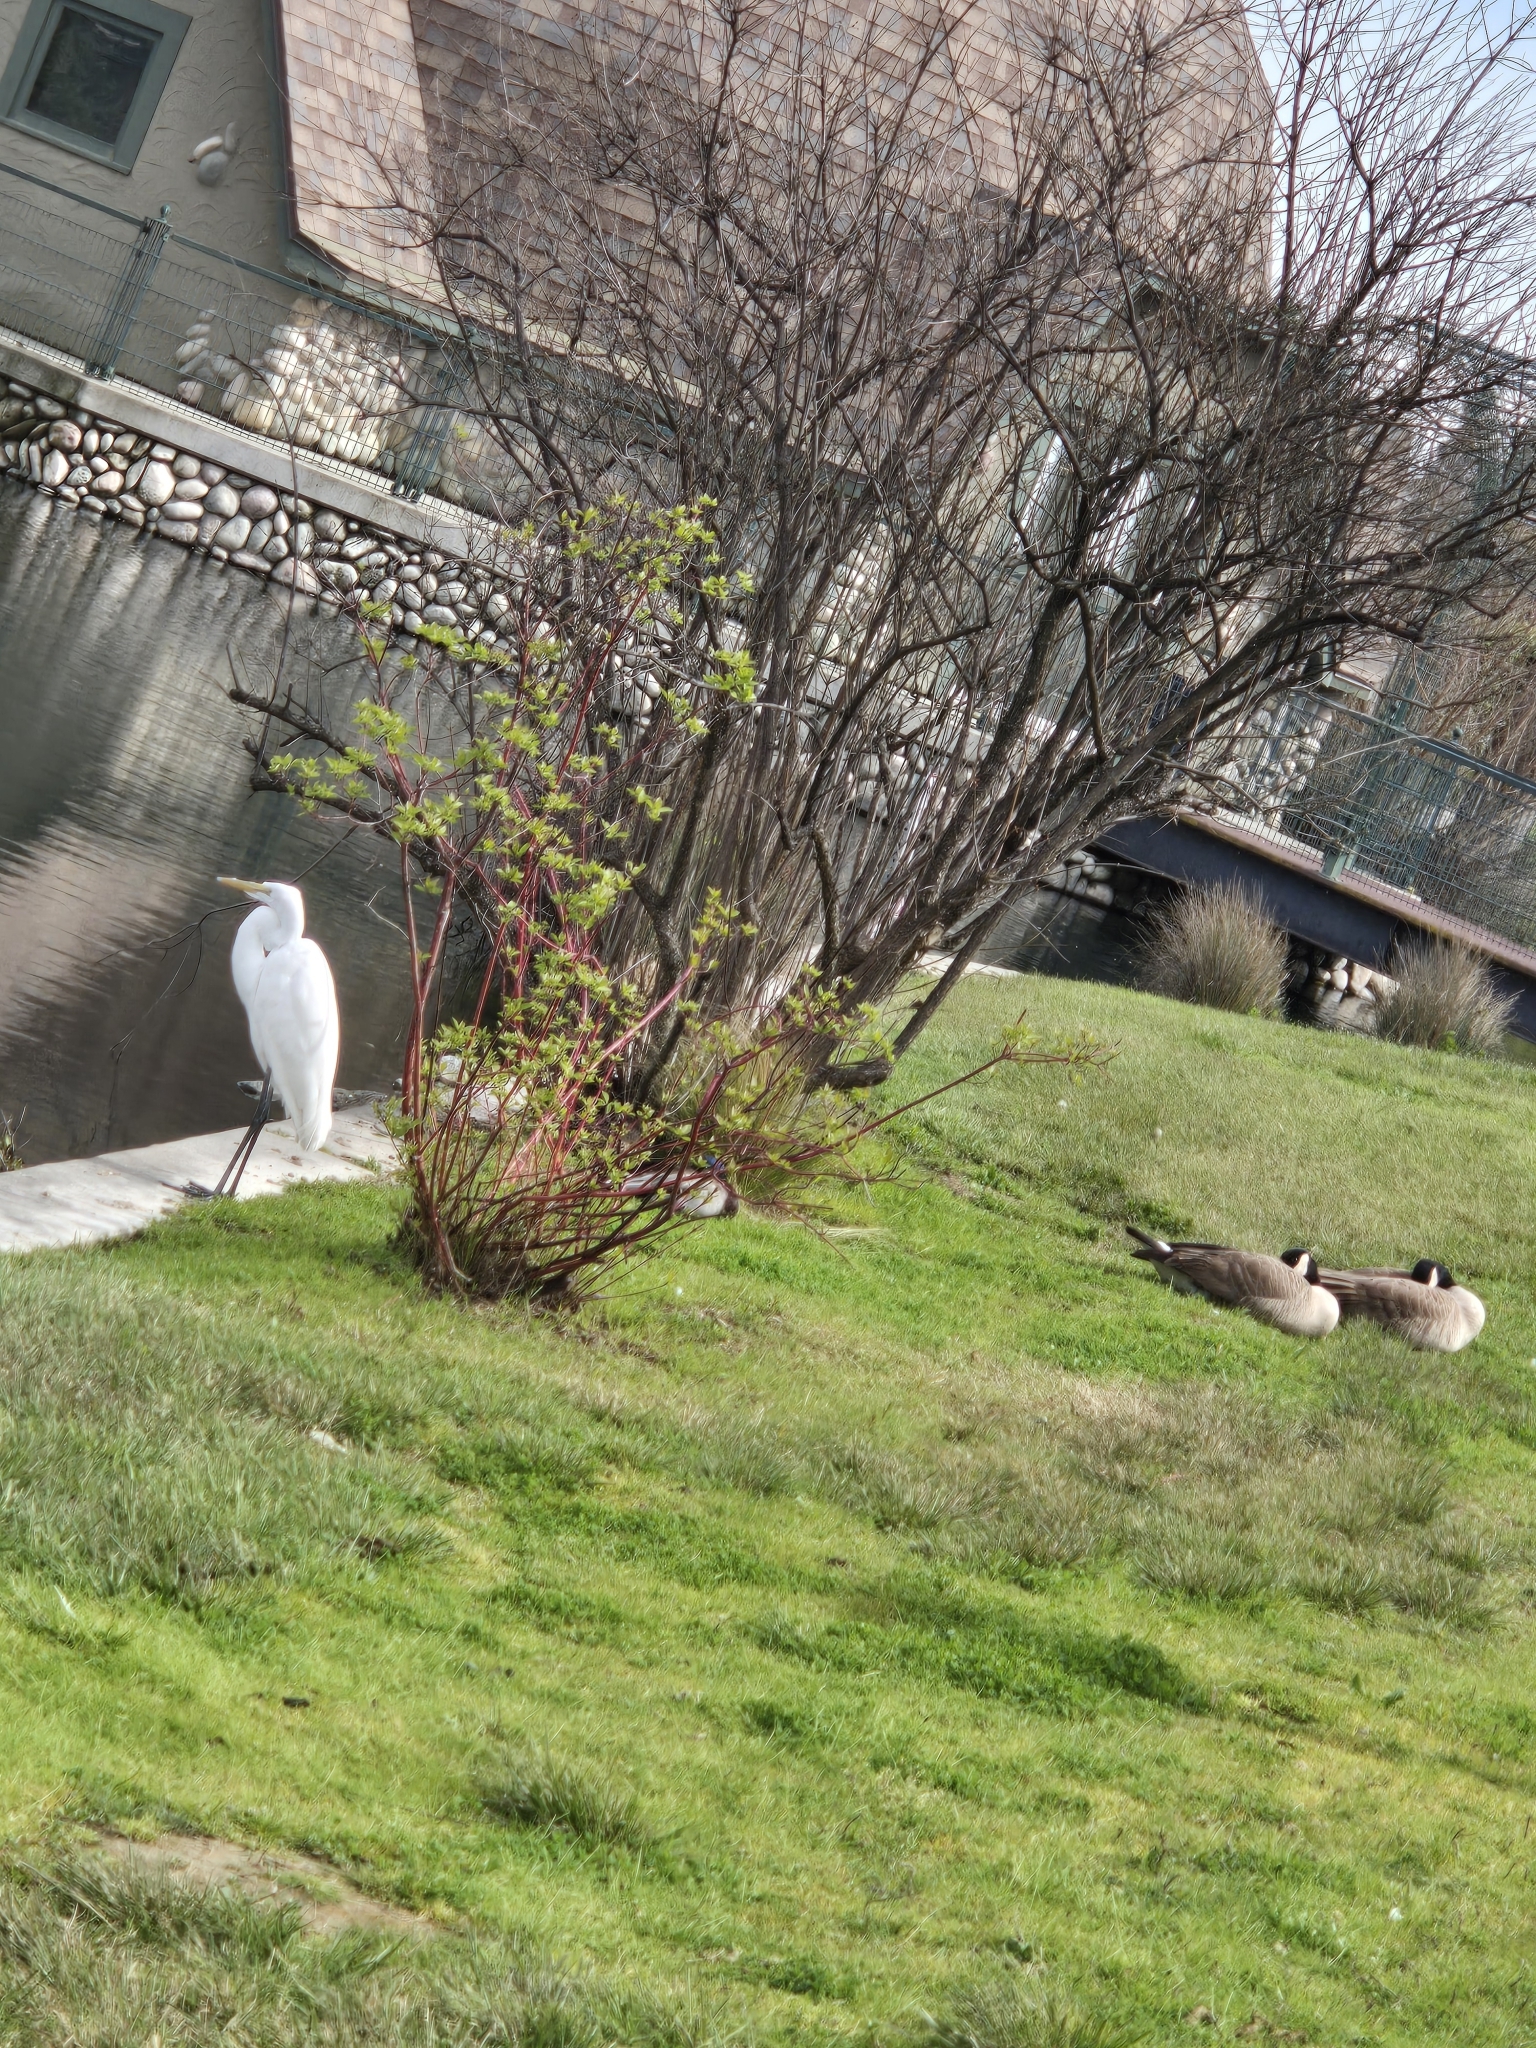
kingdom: Animalia
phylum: Chordata
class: Aves
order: Pelecaniformes
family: Ardeidae
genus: Ardea
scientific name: Ardea alba
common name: Great egret
